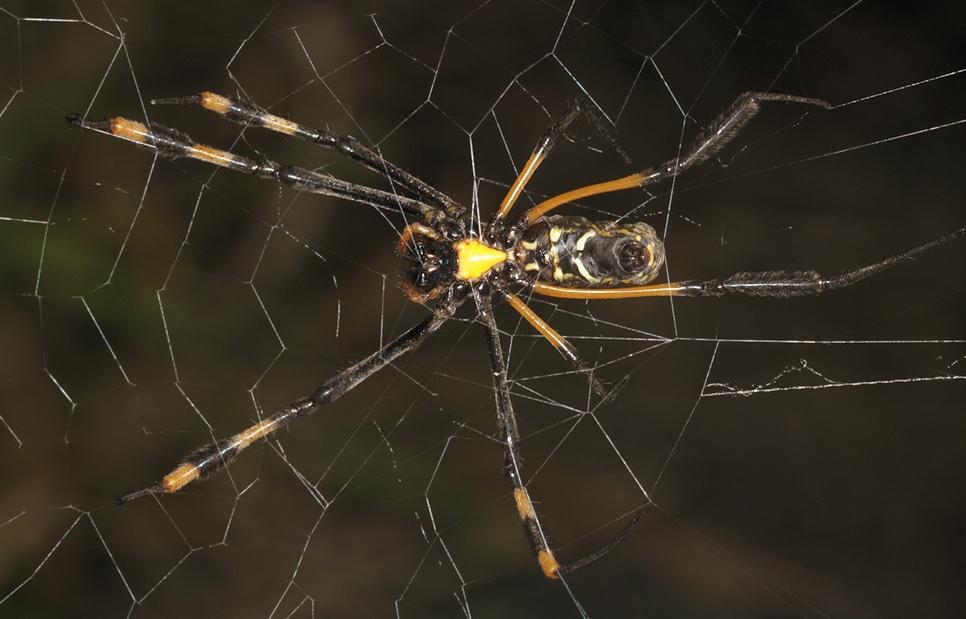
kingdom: Animalia
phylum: Arthropoda
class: Arachnida
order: Araneae
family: Araneidae
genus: Trichonephila
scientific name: Trichonephila senegalensis
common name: Banded golden orb weaver
